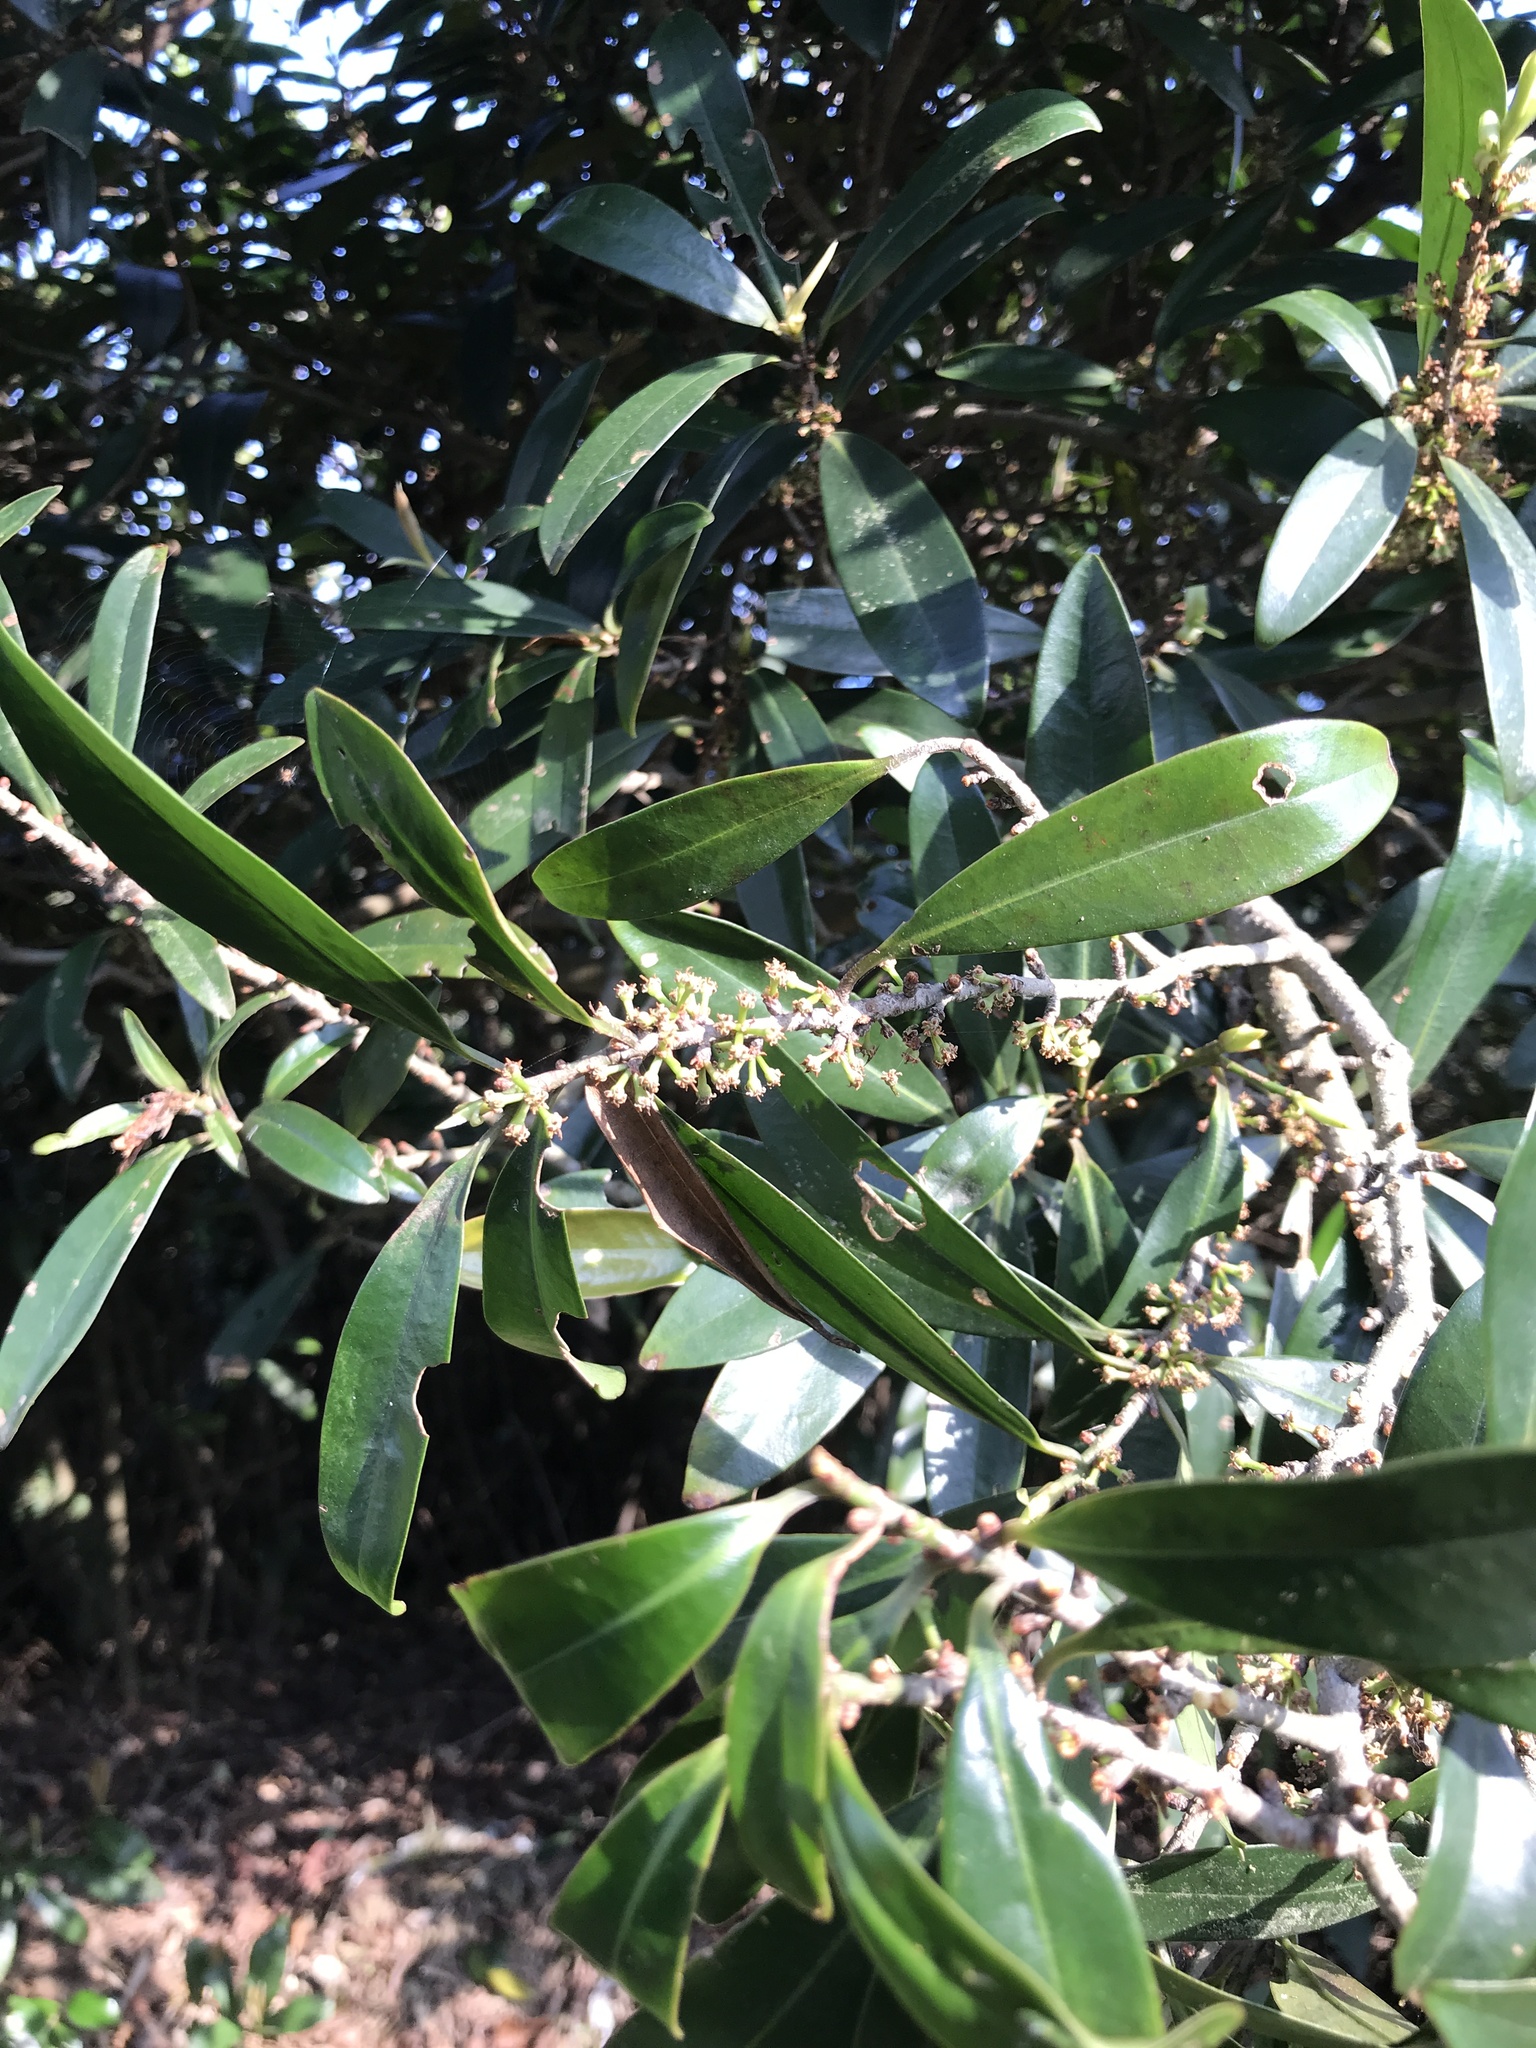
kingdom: Plantae
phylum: Tracheophyta
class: Magnoliopsida
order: Ericales
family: Primulaceae
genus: Myrsine
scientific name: Myrsine seguinii
